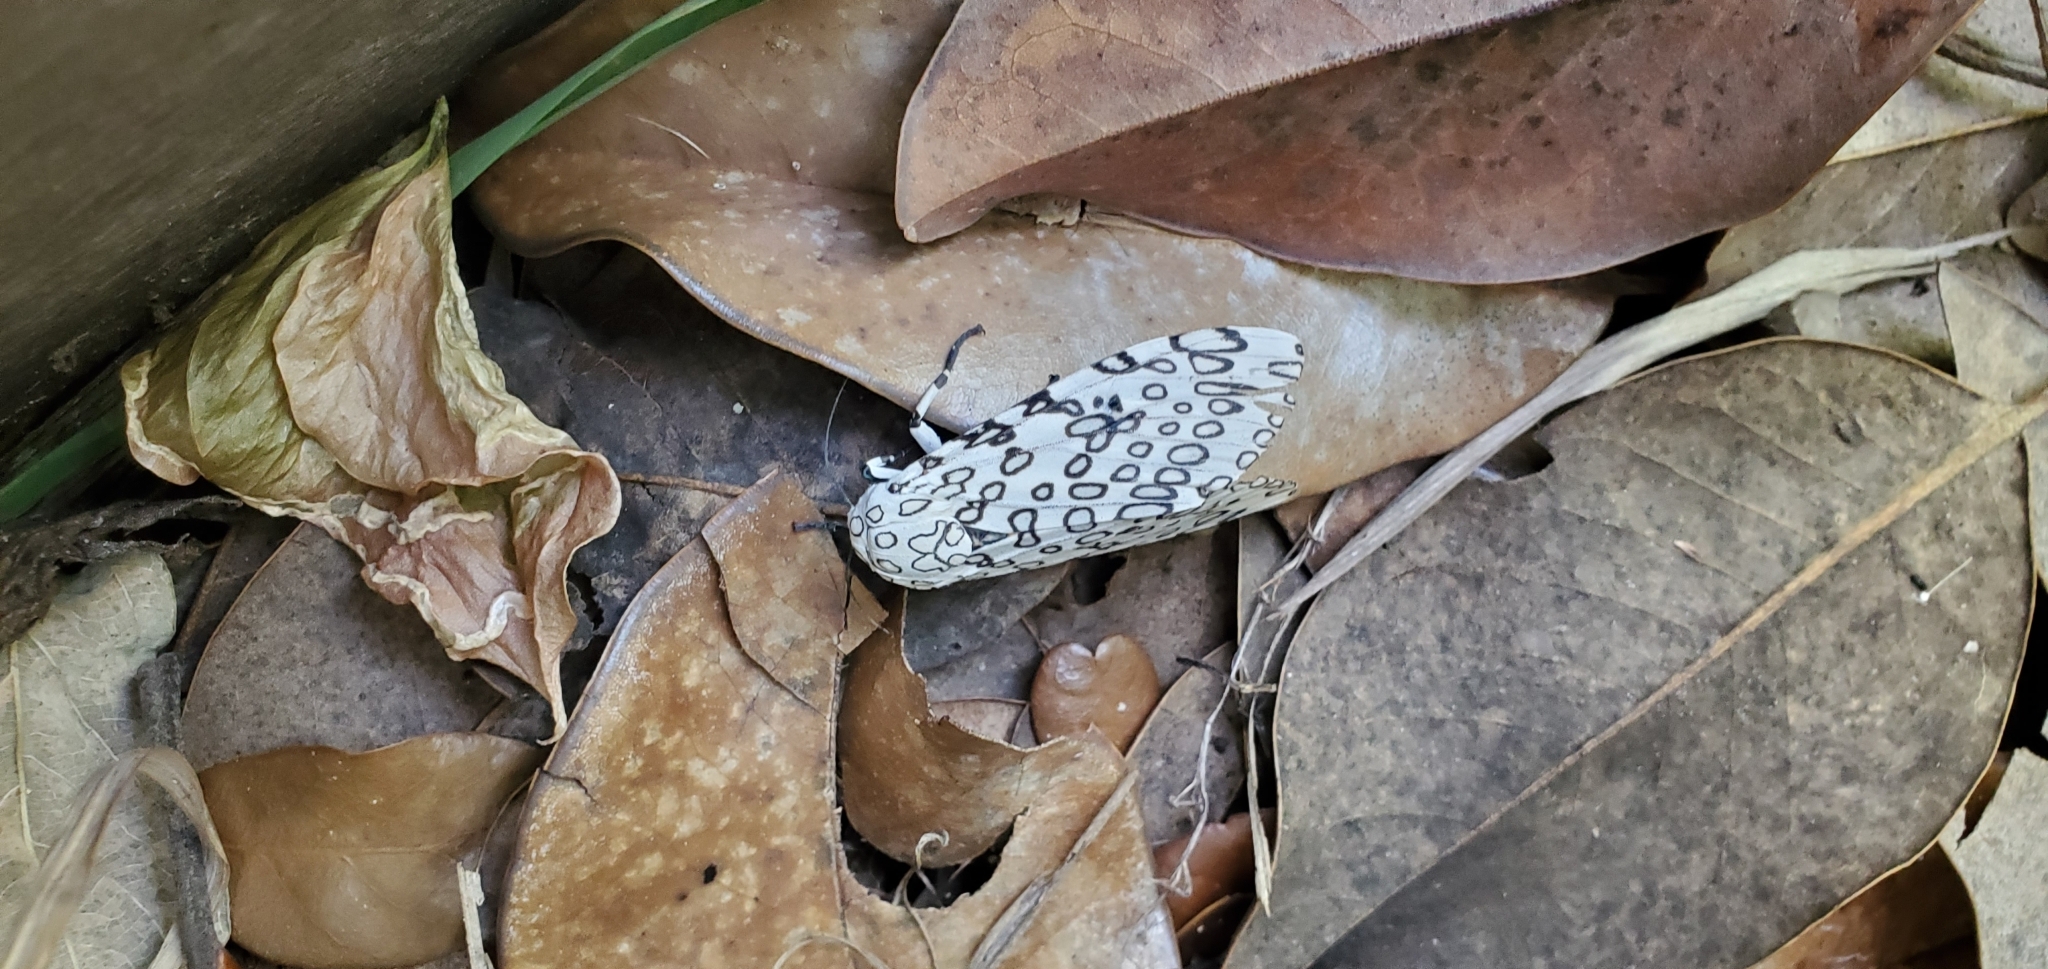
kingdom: Animalia
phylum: Arthropoda
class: Insecta
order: Lepidoptera
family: Erebidae
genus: Hypercompe
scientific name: Hypercompe scribonia
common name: Giant leopard moth
